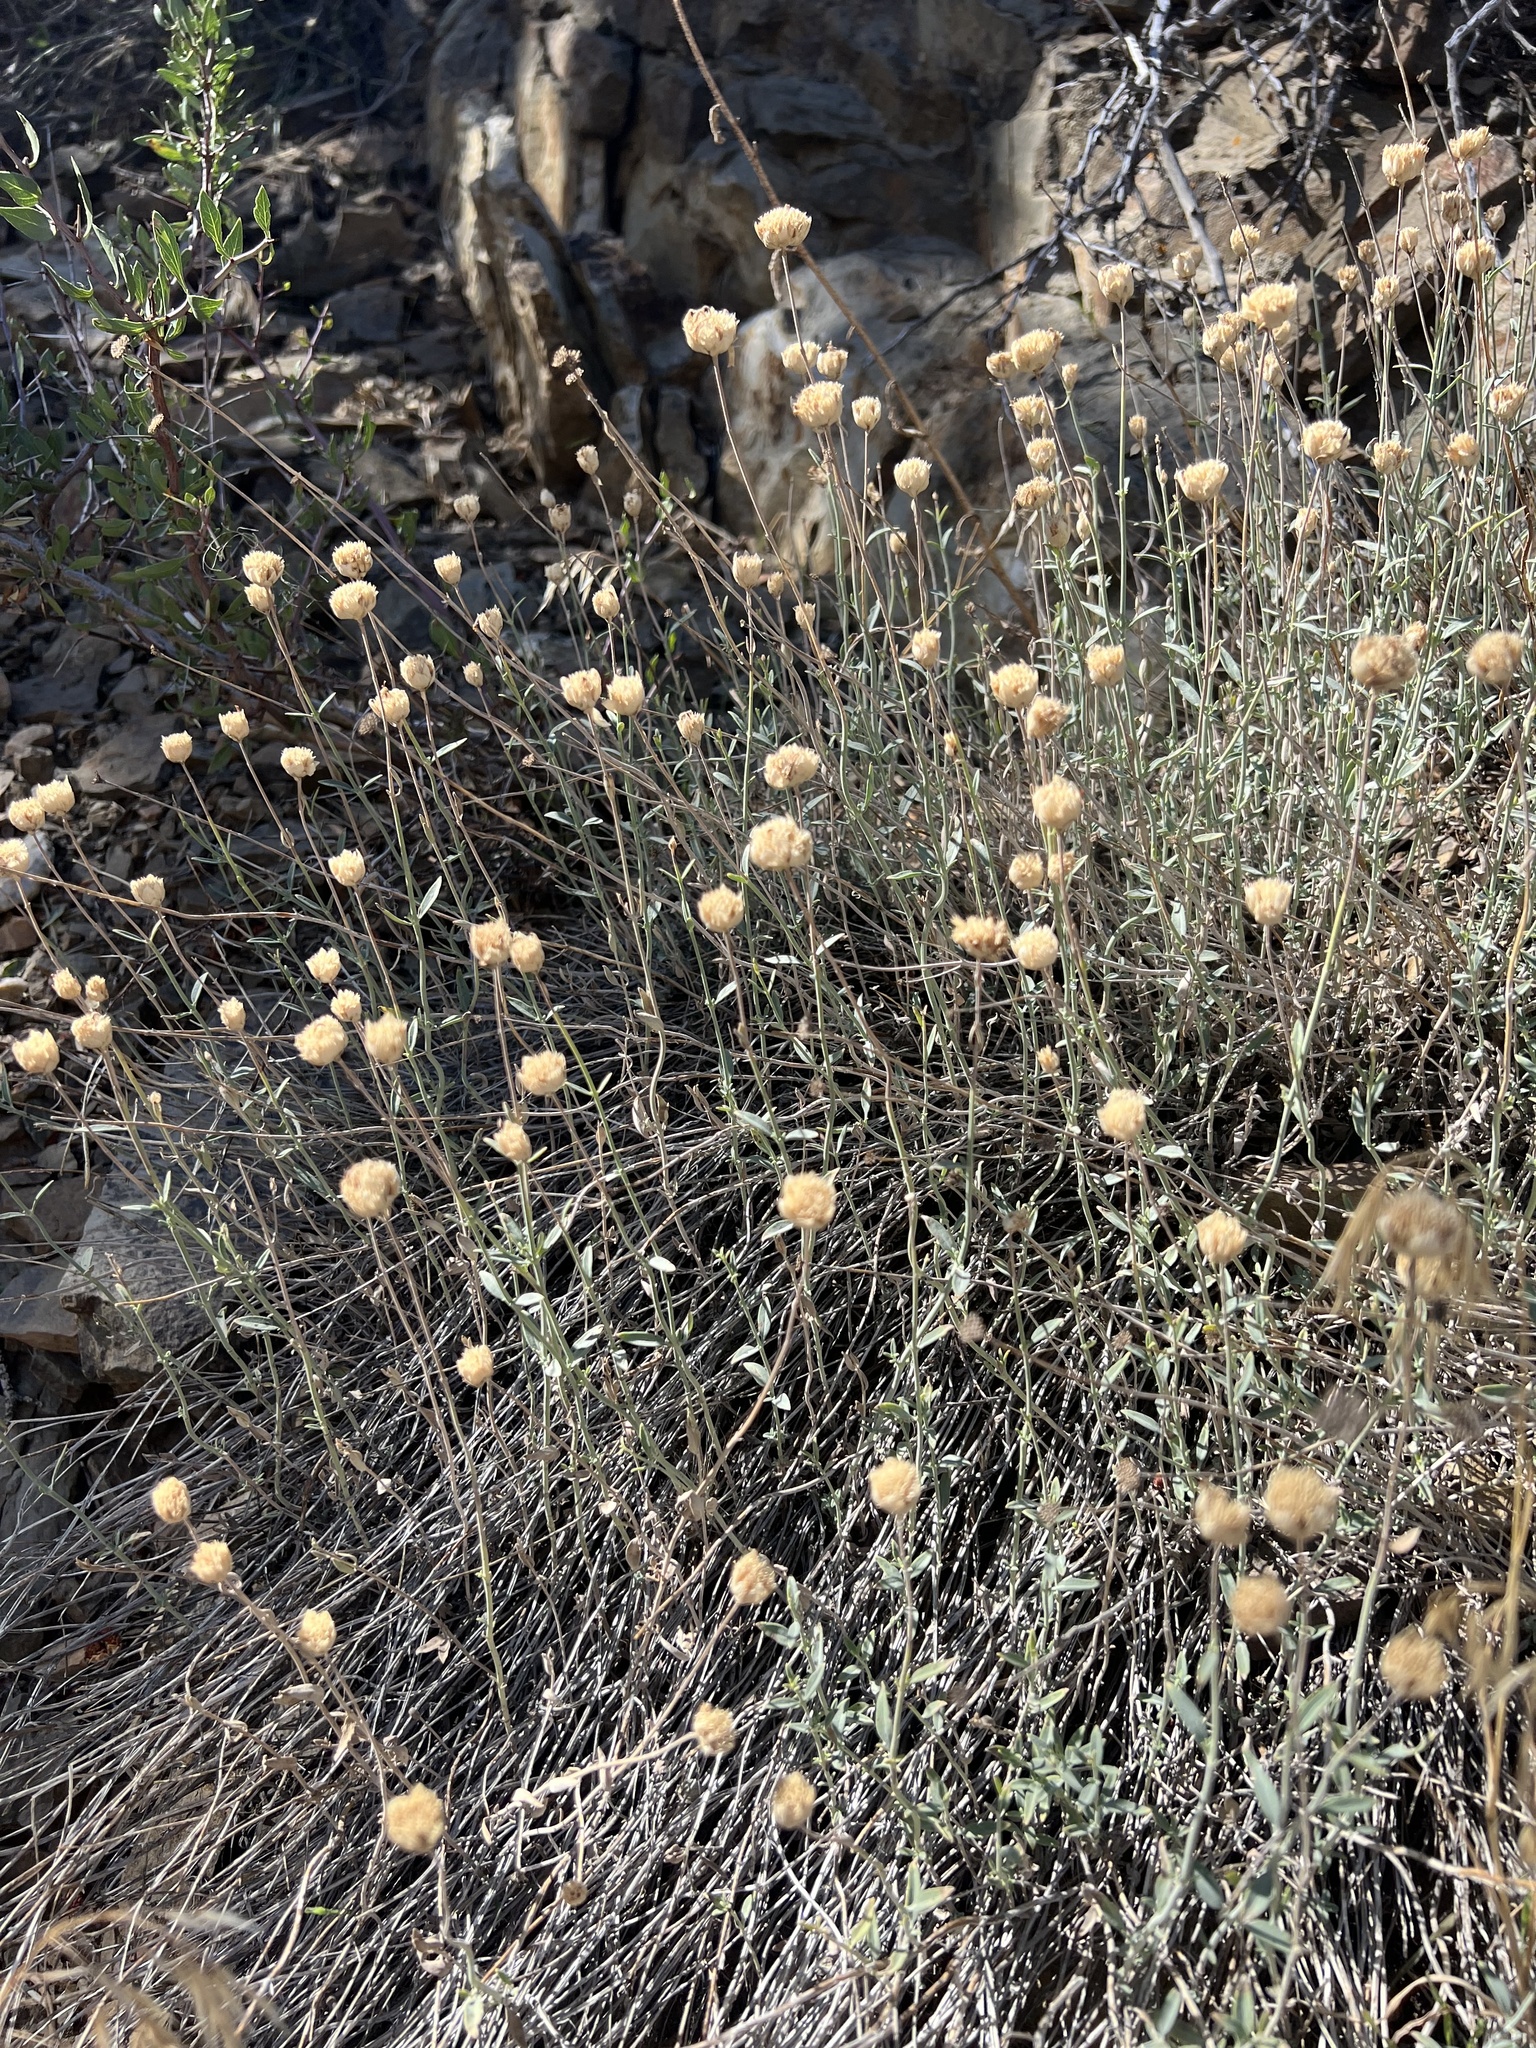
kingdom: Plantae
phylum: Tracheophyta
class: Magnoliopsida
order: Lamiales
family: Lamiaceae
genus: Monardella
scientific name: Monardella linoides
